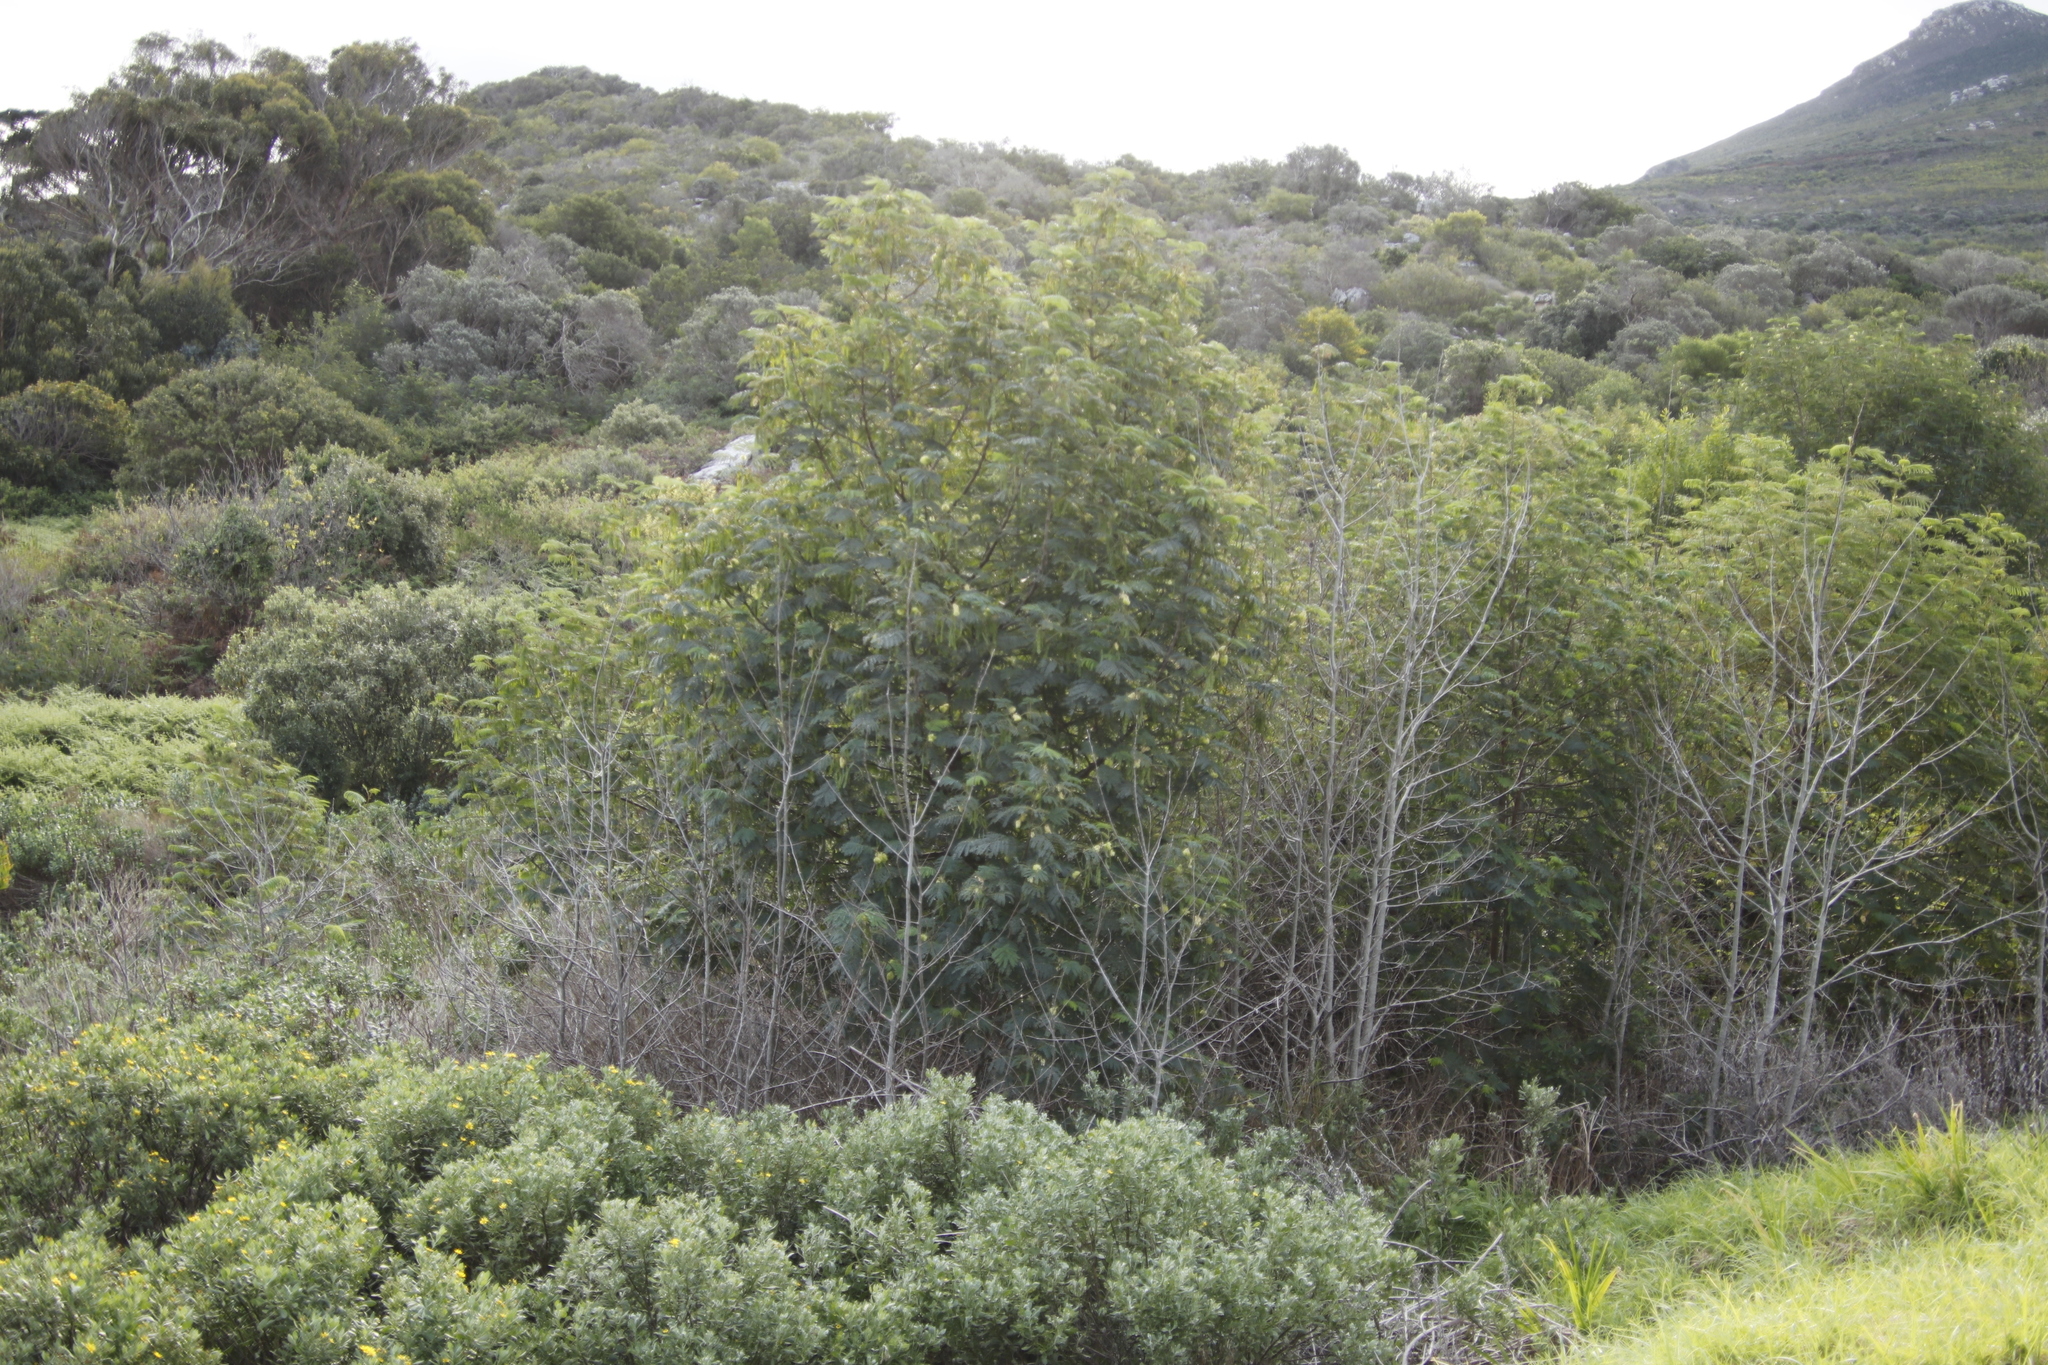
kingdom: Plantae
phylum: Tracheophyta
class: Magnoliopsida
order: Fabales
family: Fabaceae
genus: Paraserianthes
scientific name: Paraserianthes lophantha
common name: Plume albizia
